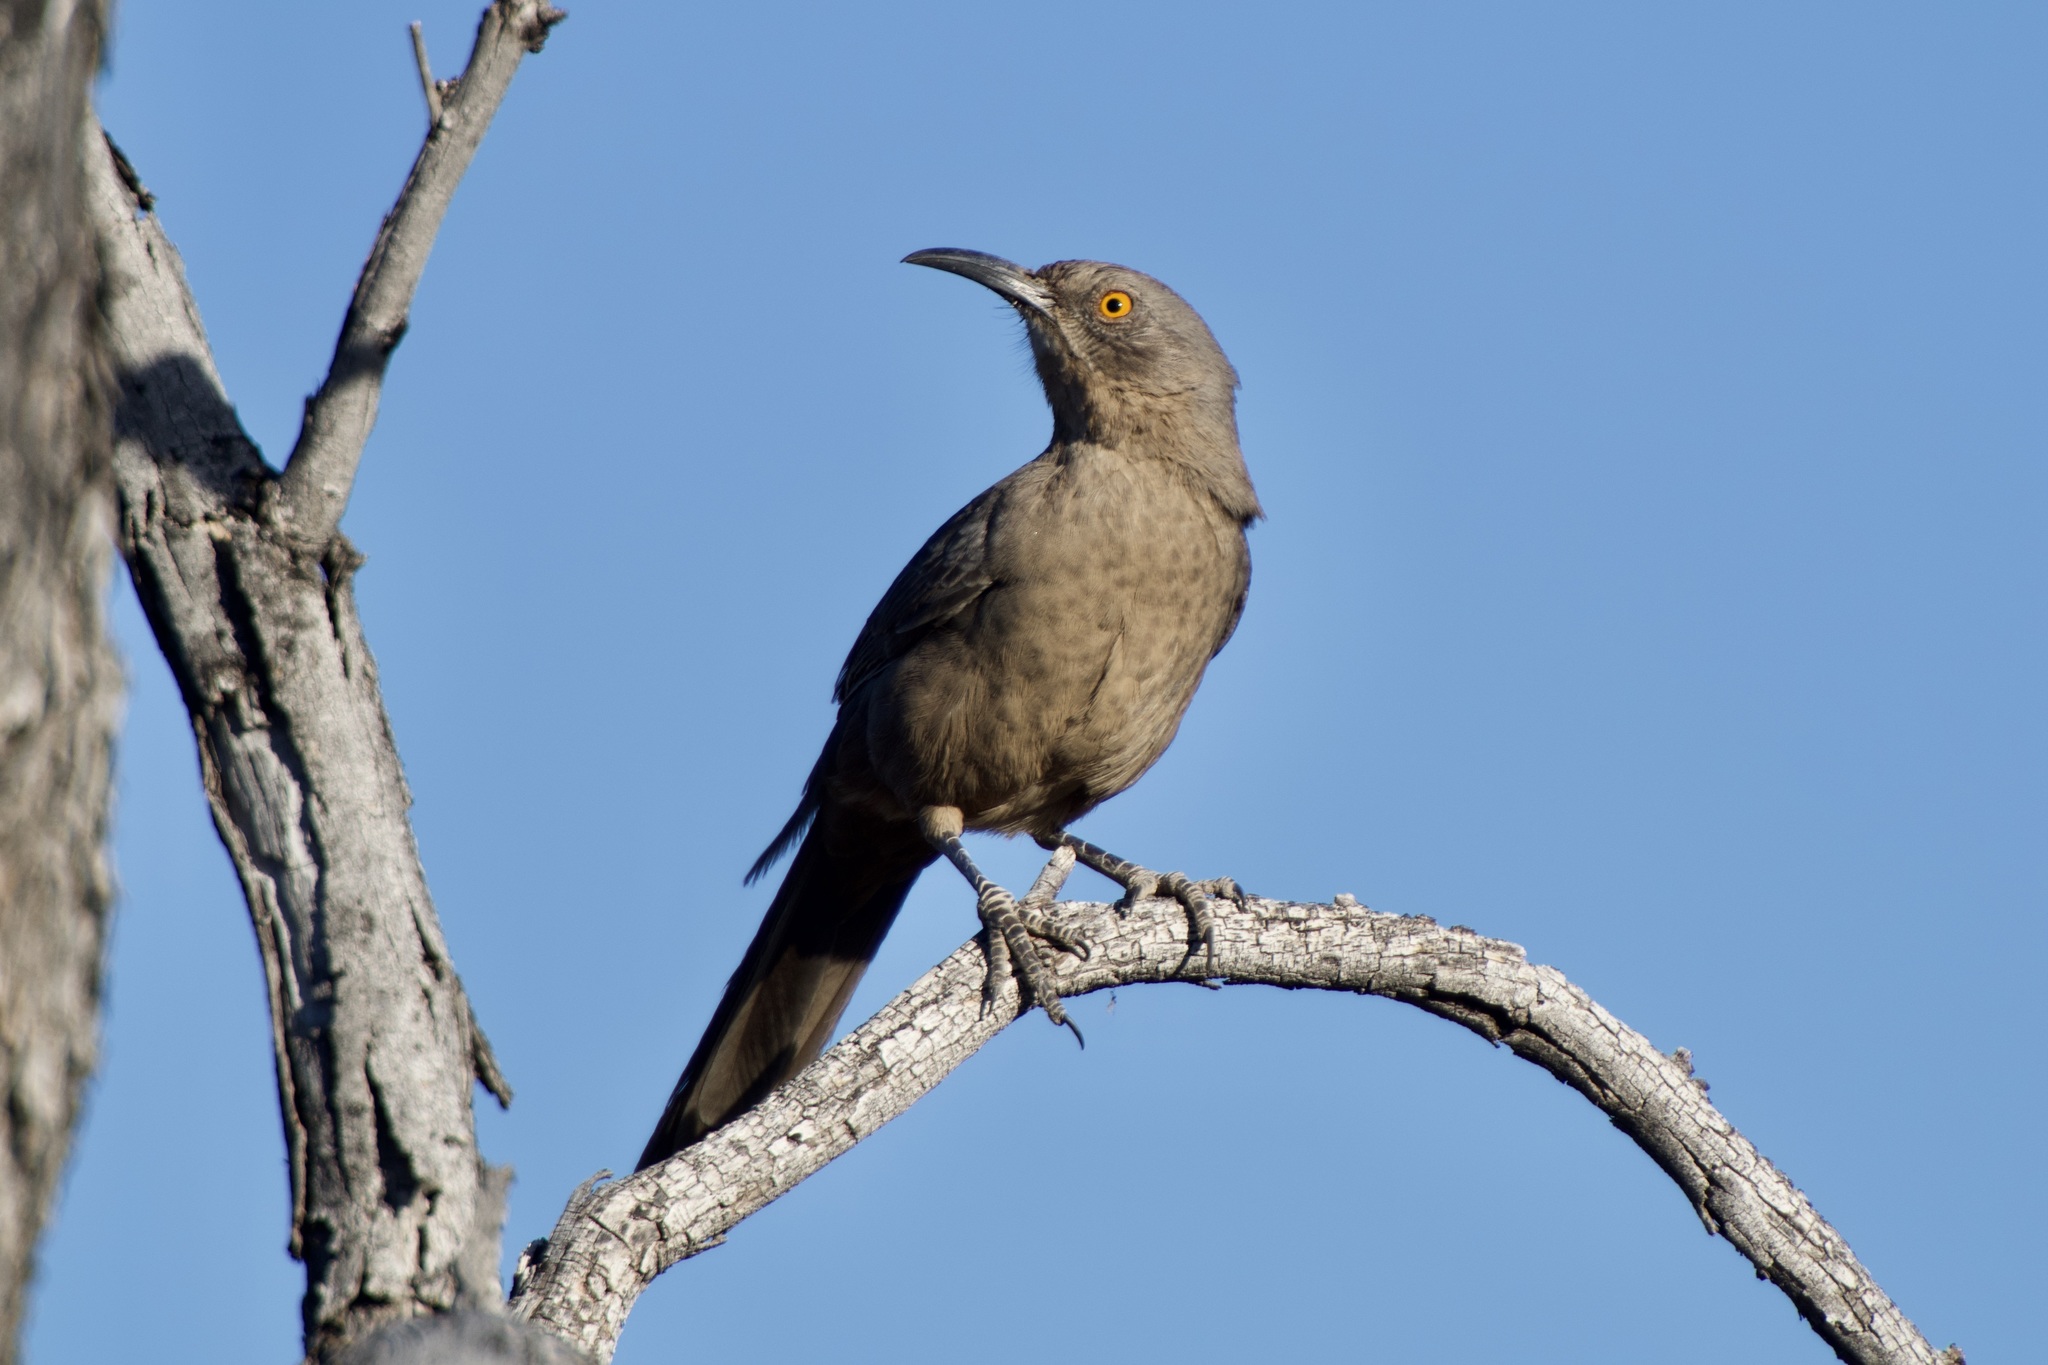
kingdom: Animalia
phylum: Chordata
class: Aves
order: Passeriformes
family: Mimidae
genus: Toxostoma
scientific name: Toxostoma curvirostre
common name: Curve-billed thrasher
